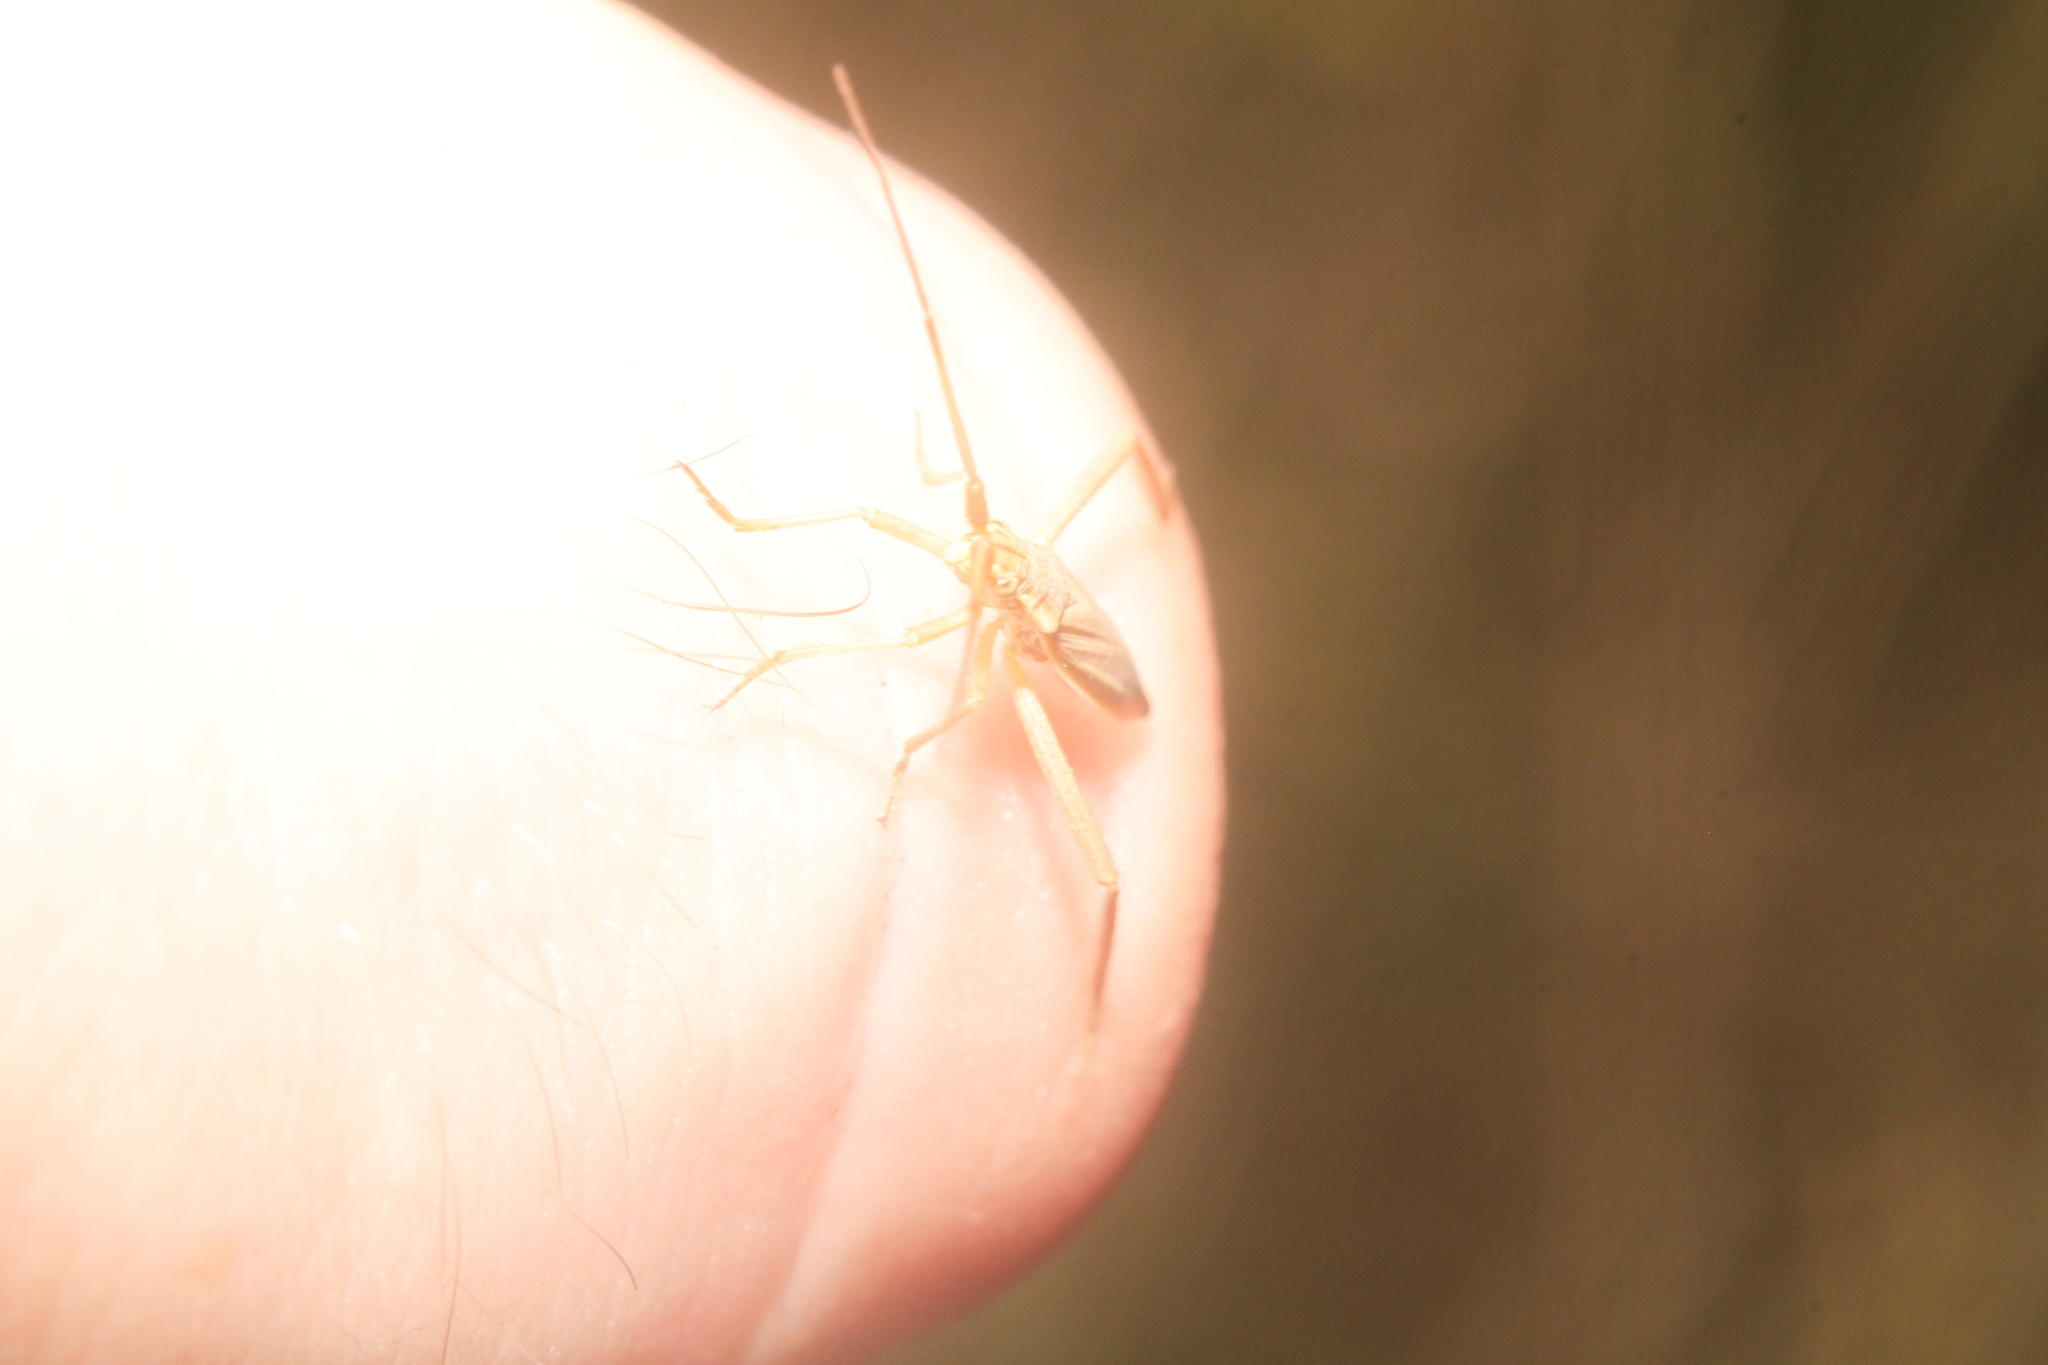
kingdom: Animalia
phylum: Arthropoda
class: Insecta
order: Hemiptera
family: Miridae
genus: Notostira
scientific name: Notostira elongata
